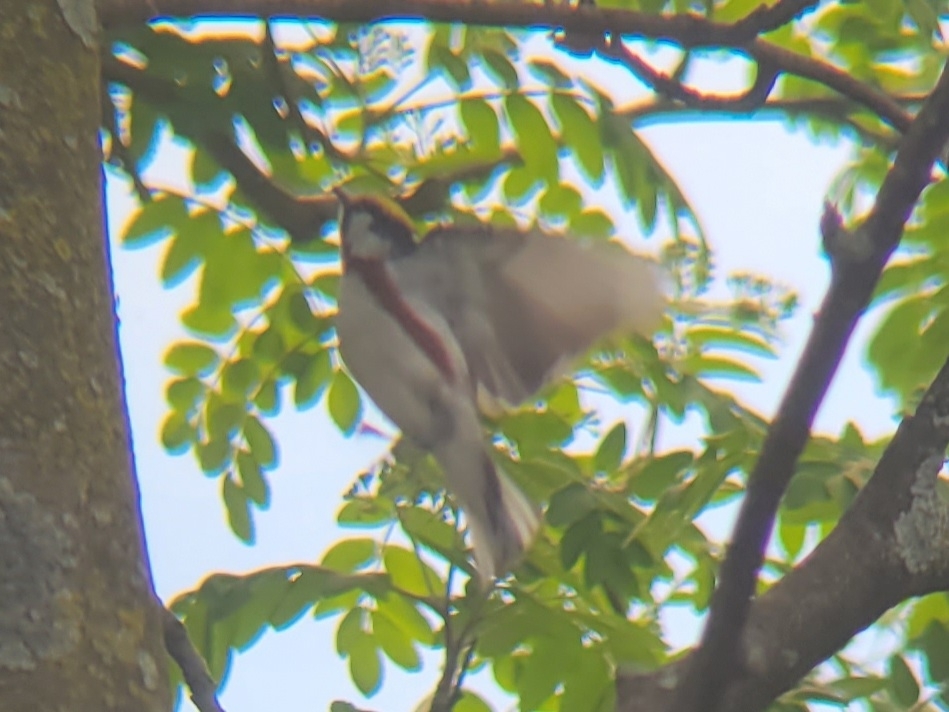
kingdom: Animalia
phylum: Chordata
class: Aves
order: Passeriformes
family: Parulidae
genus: Setophaga
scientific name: Setophaga pensylvanica
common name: Chestnut-sided warbler
